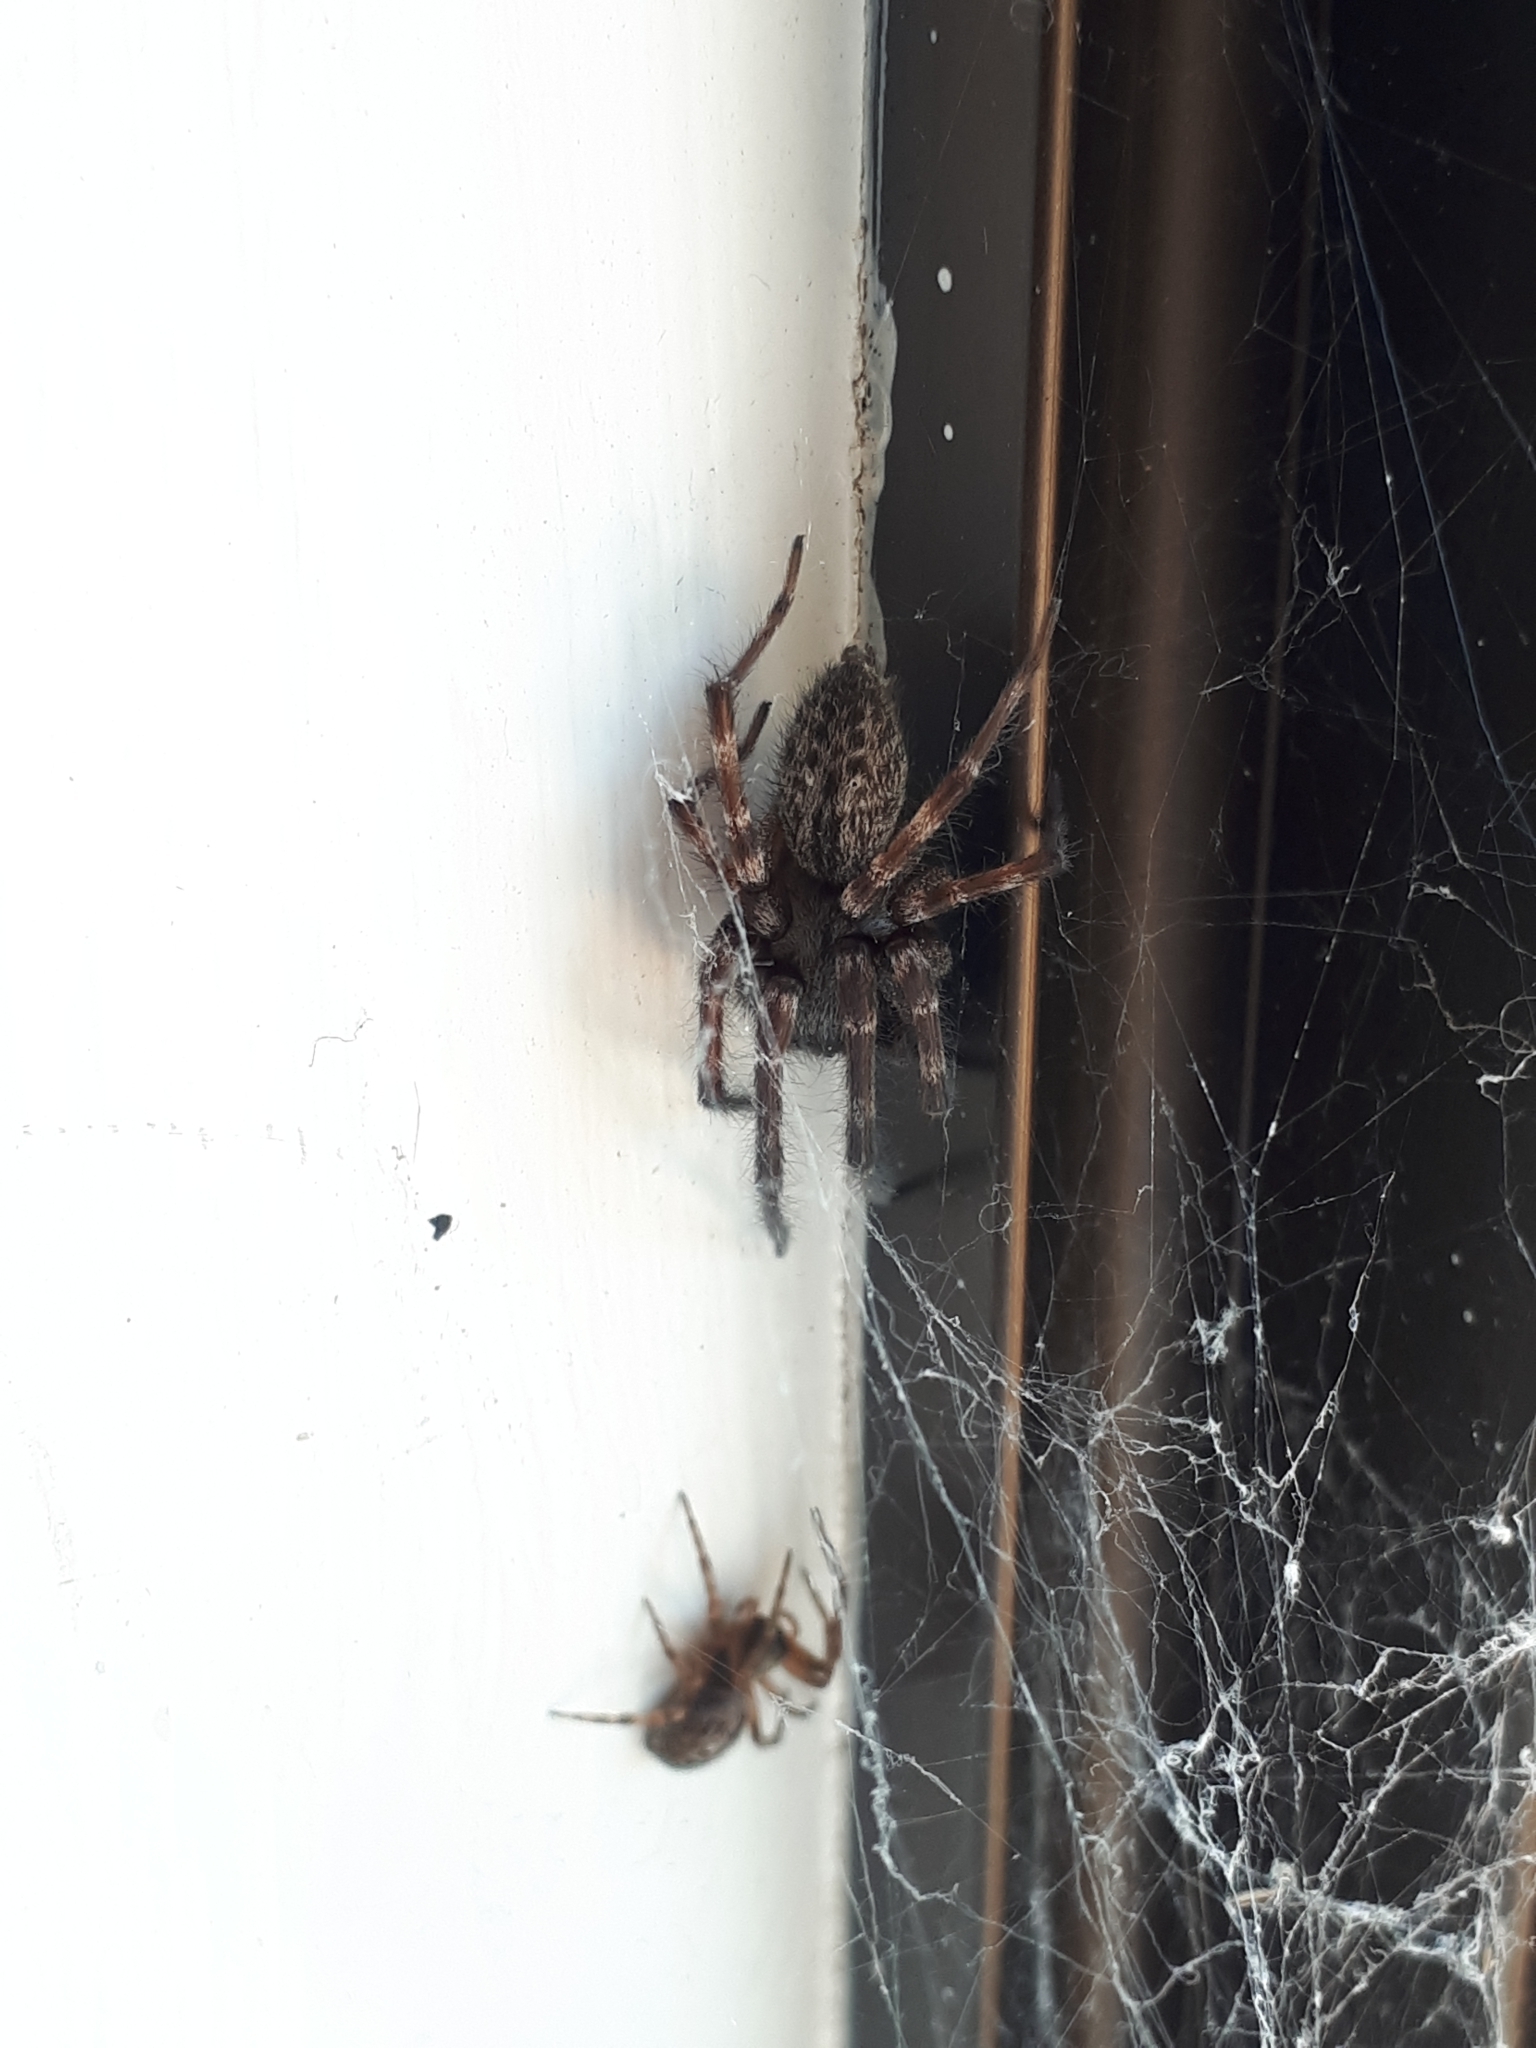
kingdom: Animalia
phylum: Arthropoda
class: Arachnida
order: Araneae
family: Desidae
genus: Badumna
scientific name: Badumna longinqua
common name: Gray house spider
